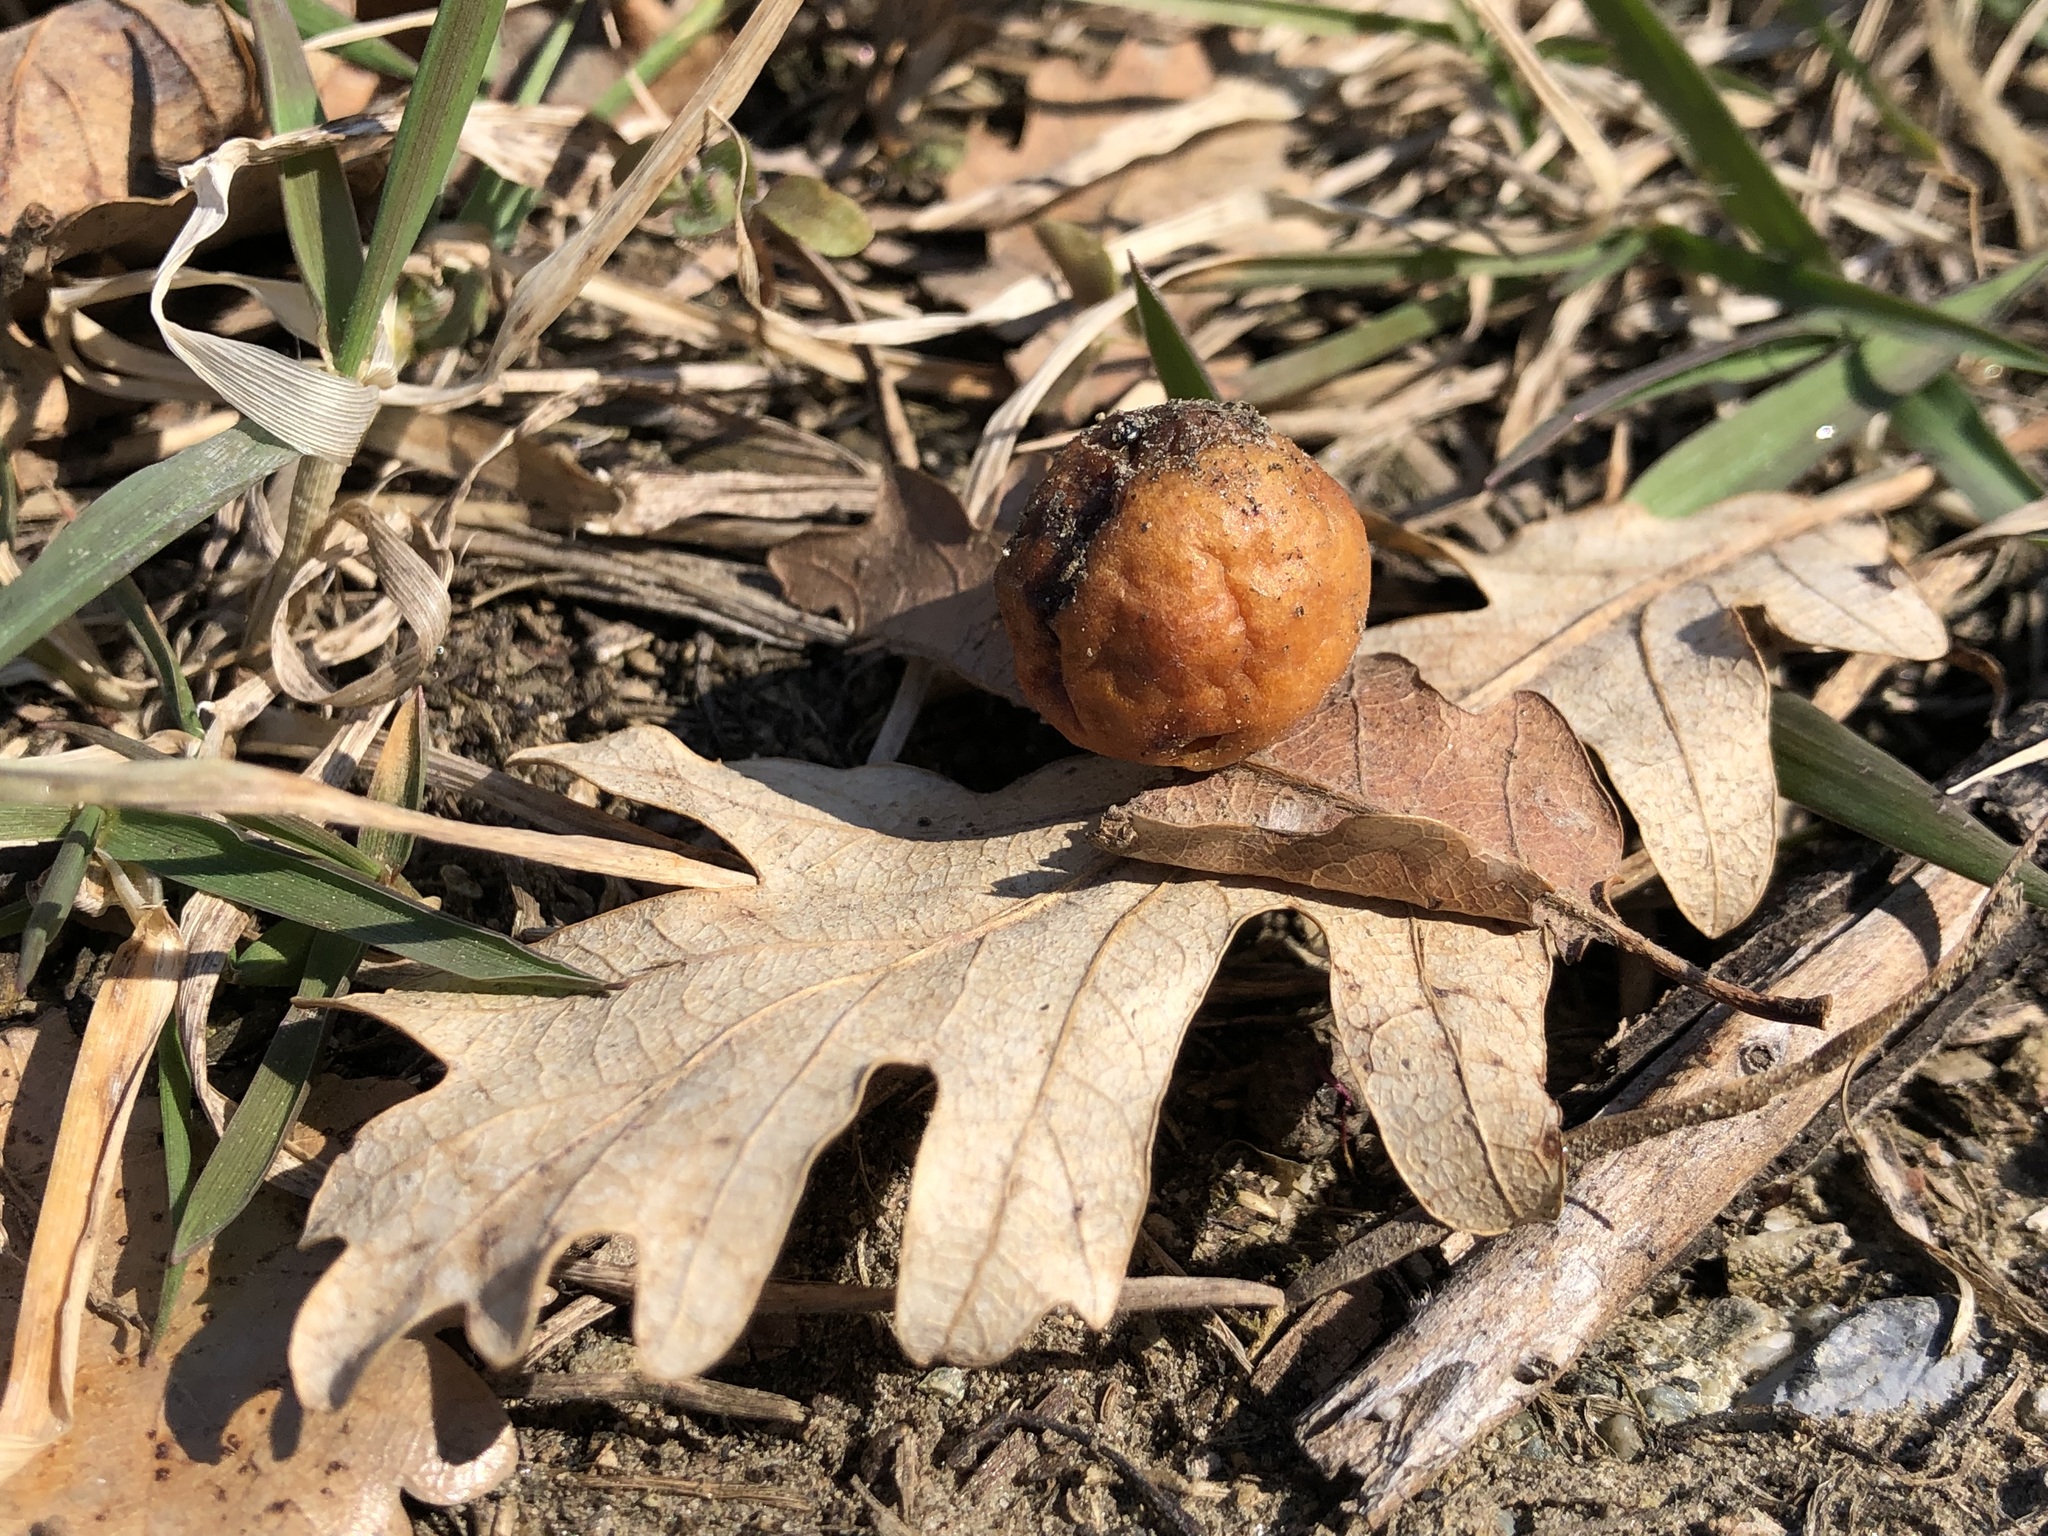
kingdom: Animalia
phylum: Arthropoda
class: Insecta
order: Hymenoptera
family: Cynipidae
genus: Cynips
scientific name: Cynips quercusfolii
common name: Cherry gall
